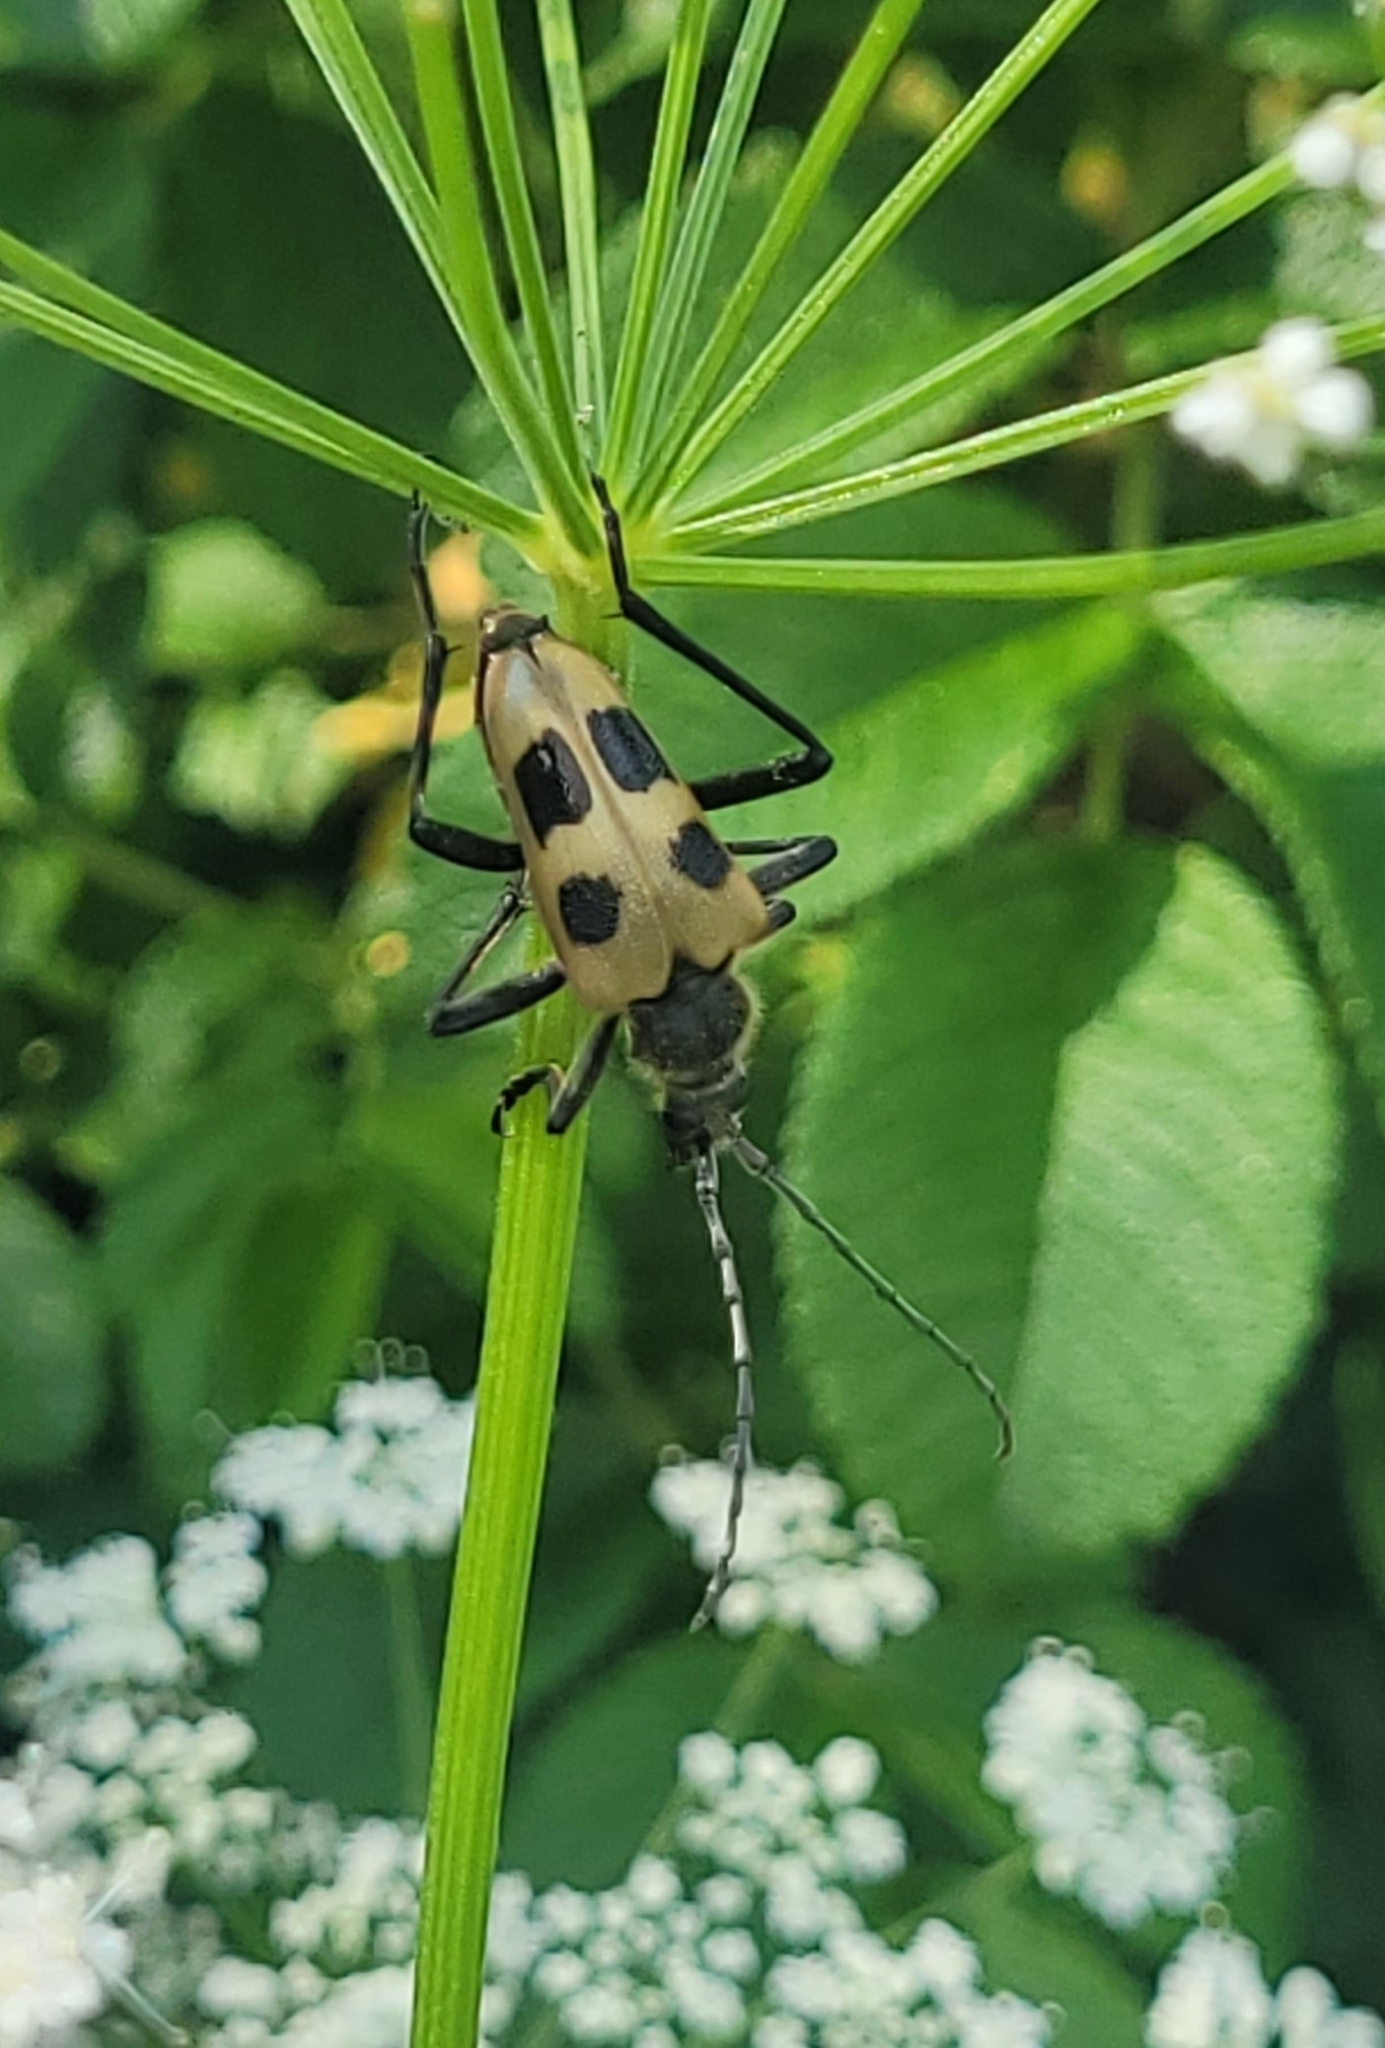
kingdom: Animalia
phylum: Arthropoda
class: Insecta
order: Coleoptera
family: Cerambycidae
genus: Pachyta
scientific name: Pachyta quadrimaculata
